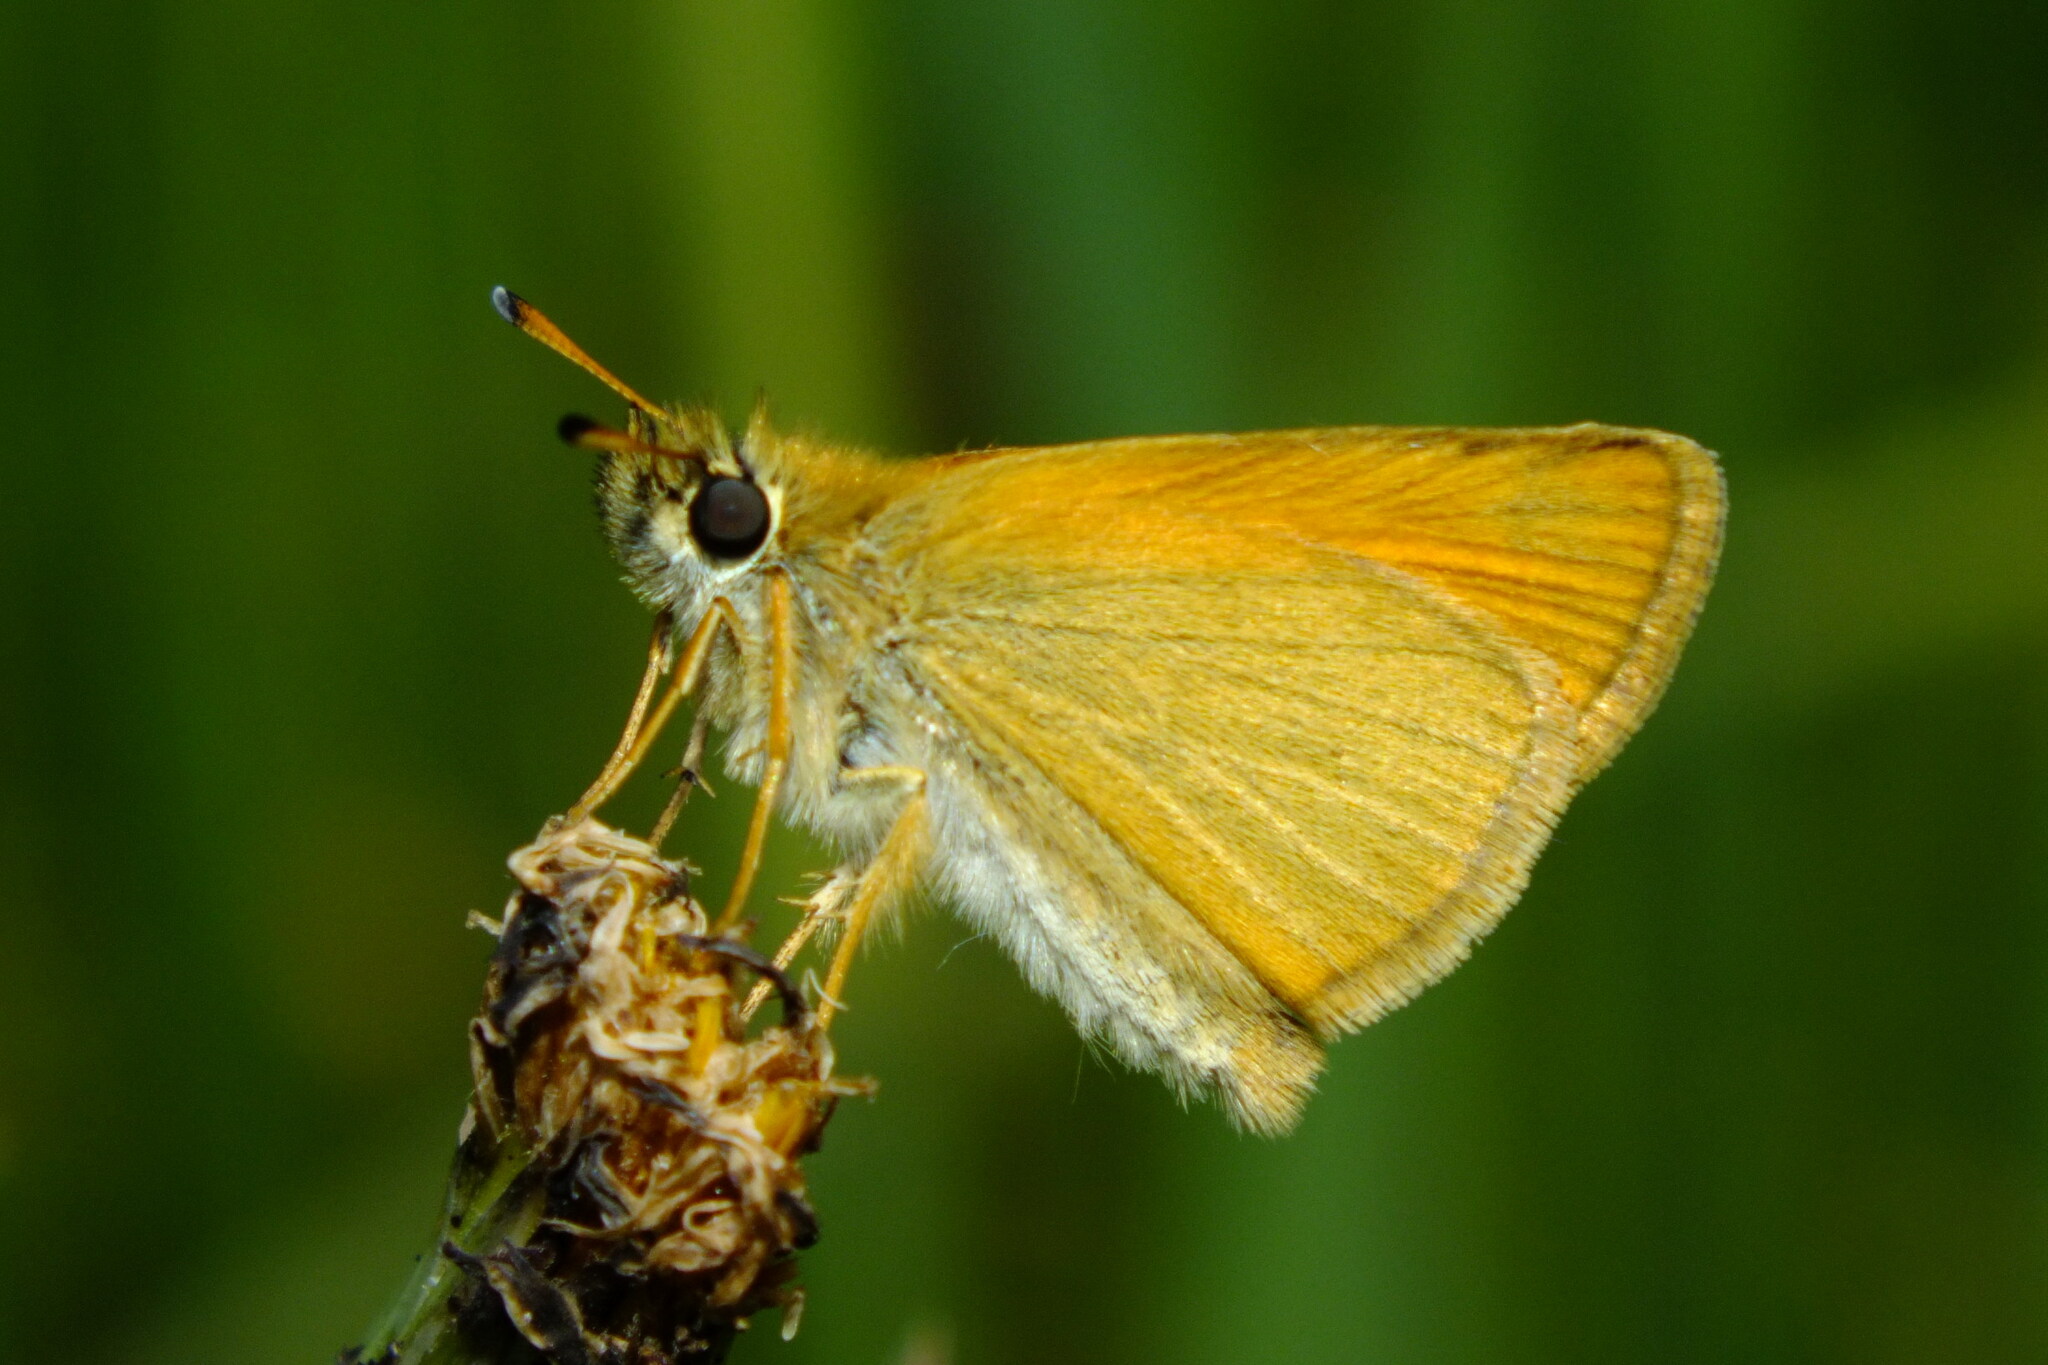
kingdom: Animalia
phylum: Arthropoda
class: Insecta
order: Lepidoptera
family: Hesperiidae
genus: Thymelicus
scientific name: Thymelicus lineola
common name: Essex skipper
